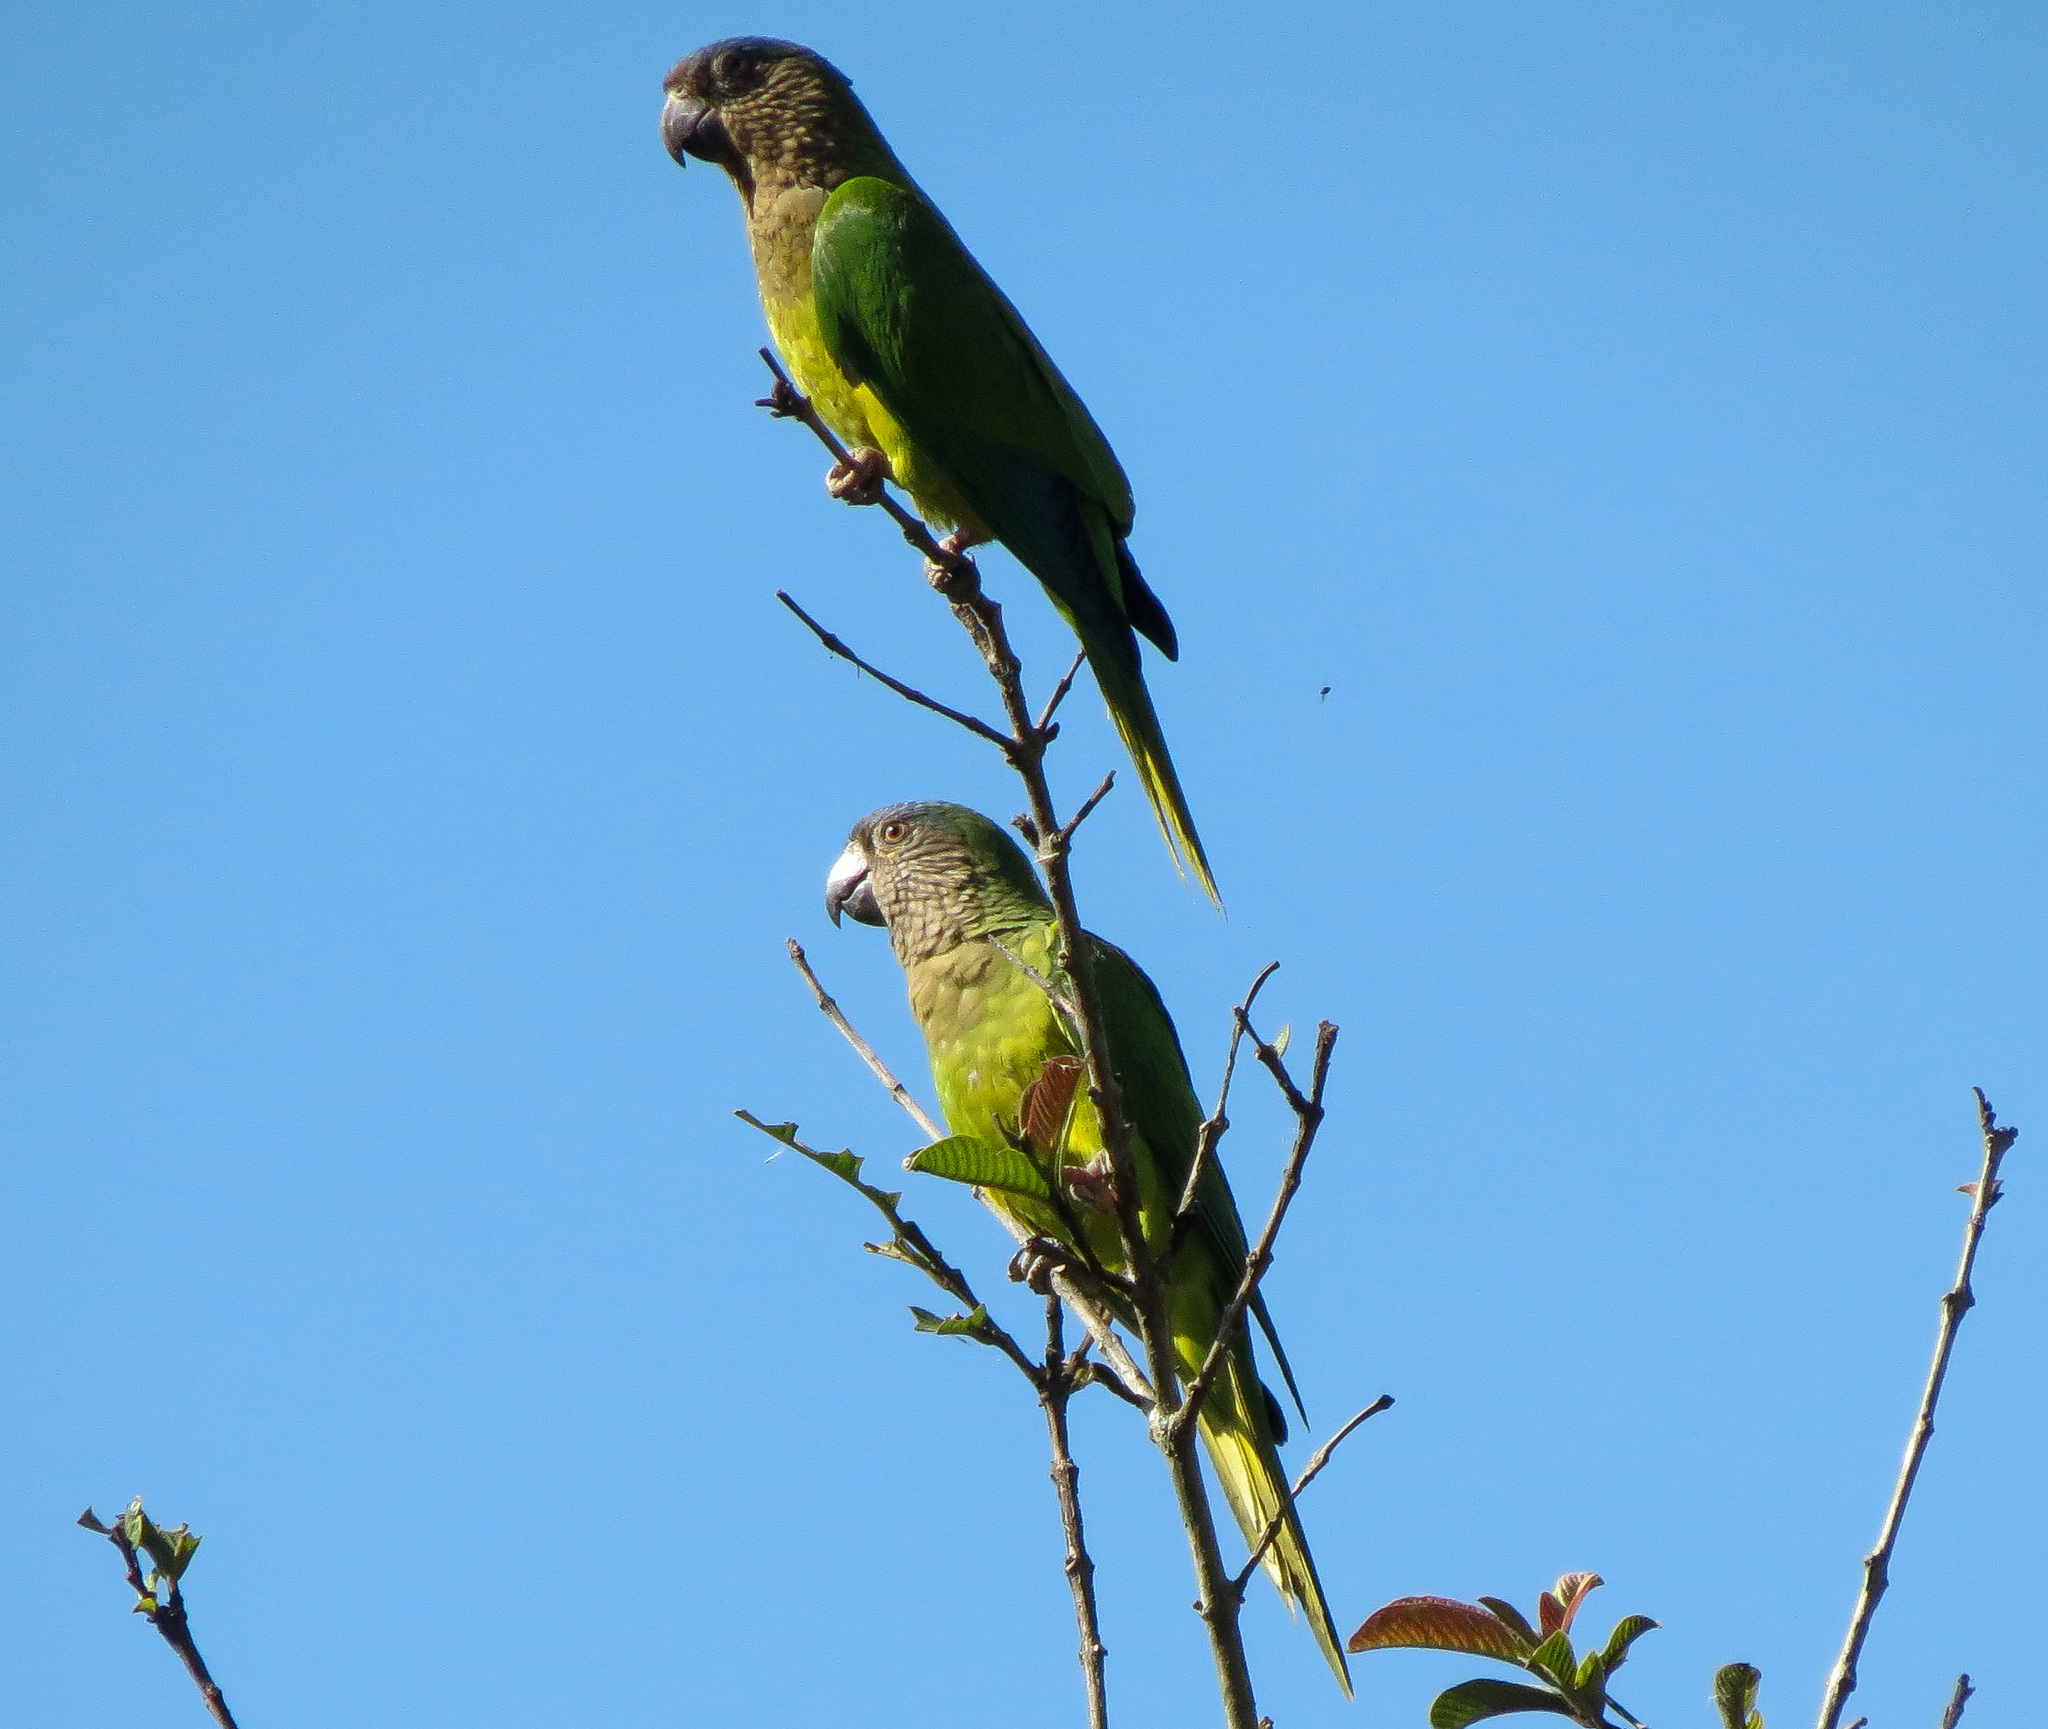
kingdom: Animalia
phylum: Chordata
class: Aves
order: Psittaciformes
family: Psittacidae
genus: Aratinga
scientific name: Aratinga pertinax
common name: Brown-throated parakeet
